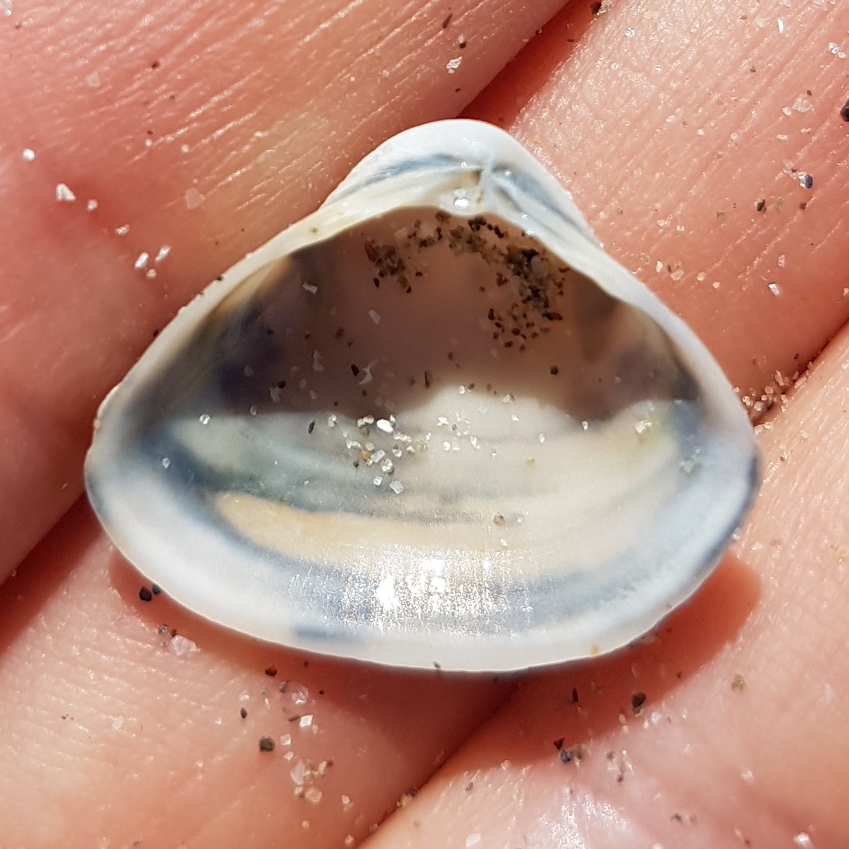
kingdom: Animalia
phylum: Mollusca
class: Bivalvia
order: Venerida
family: Mactridae
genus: Spisula
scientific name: Spisula subtruncata
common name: Cut trough shell
